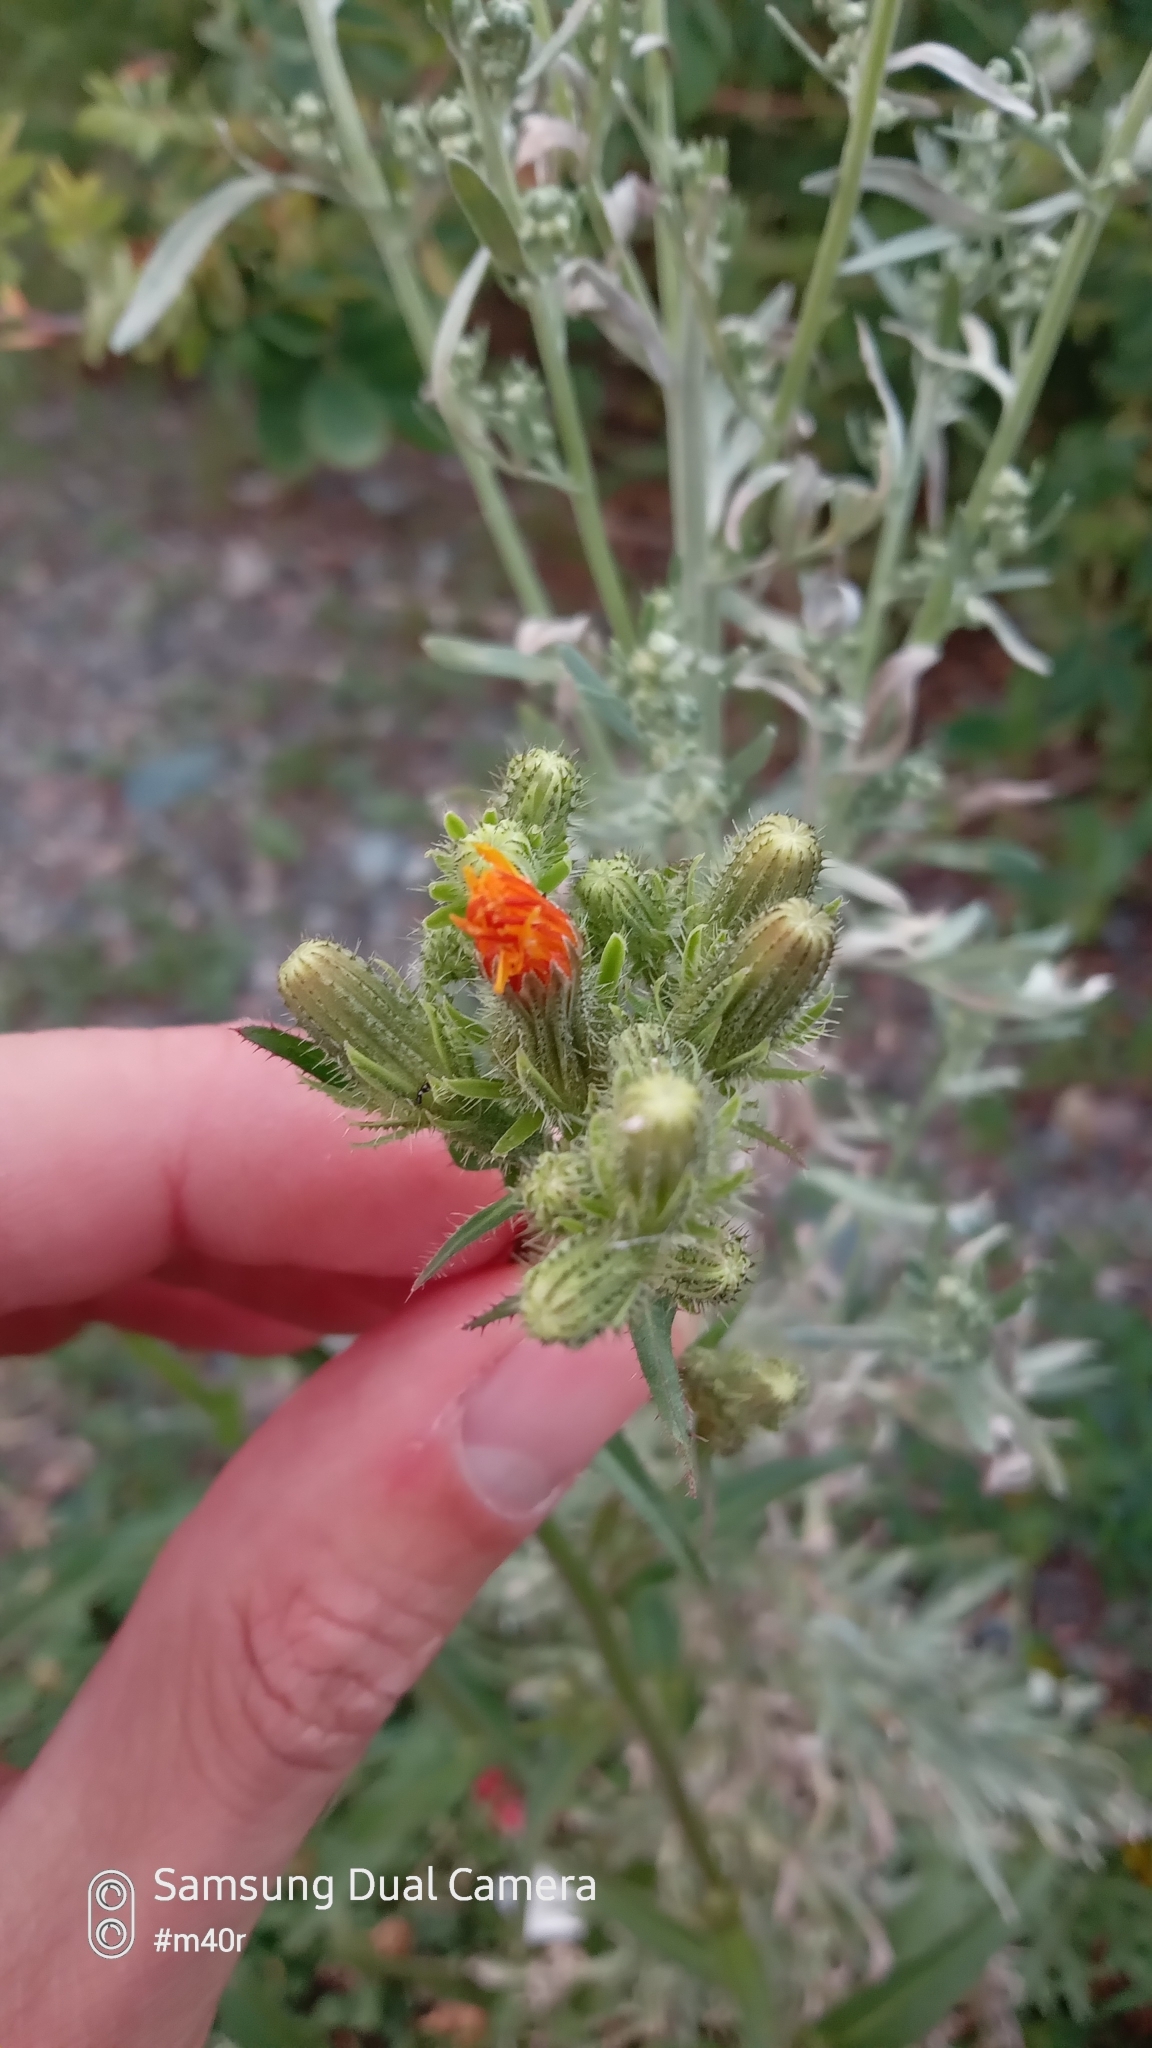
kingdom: Plantae
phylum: Tracheophyta
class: Magnoliopsida
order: Asterales
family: Asteraceae
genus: Pilosella
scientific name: Pilosella aurantiaca
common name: Fox-and-cubs
